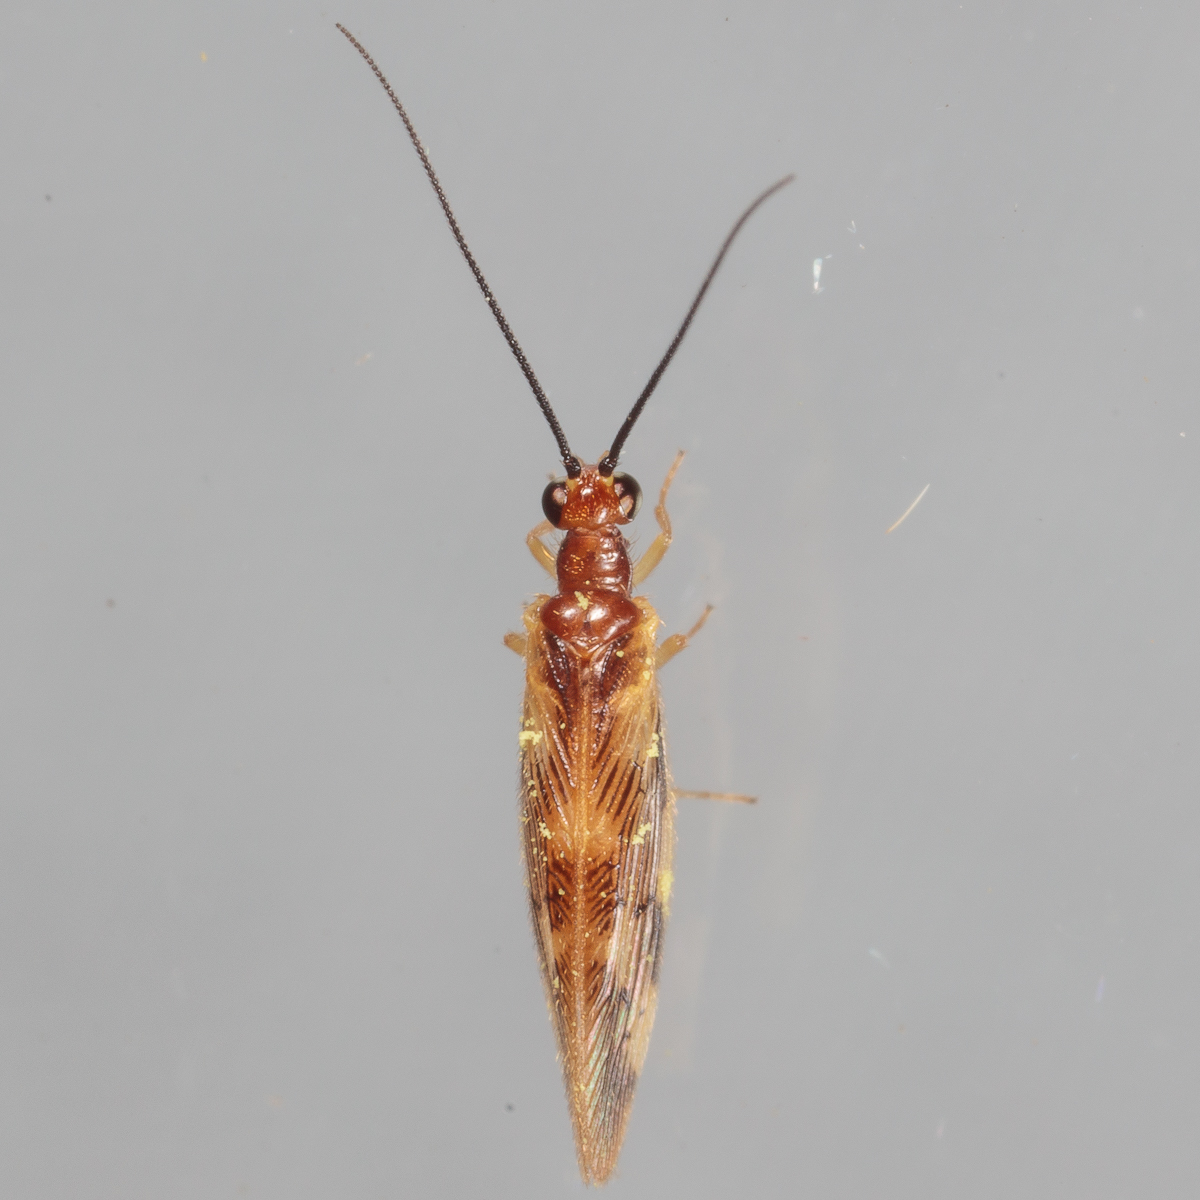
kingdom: Animalia
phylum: Arthropoda
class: Insecta
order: Neuroptera
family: Sisyridae
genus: Climacia
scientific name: Climacia areolaris
